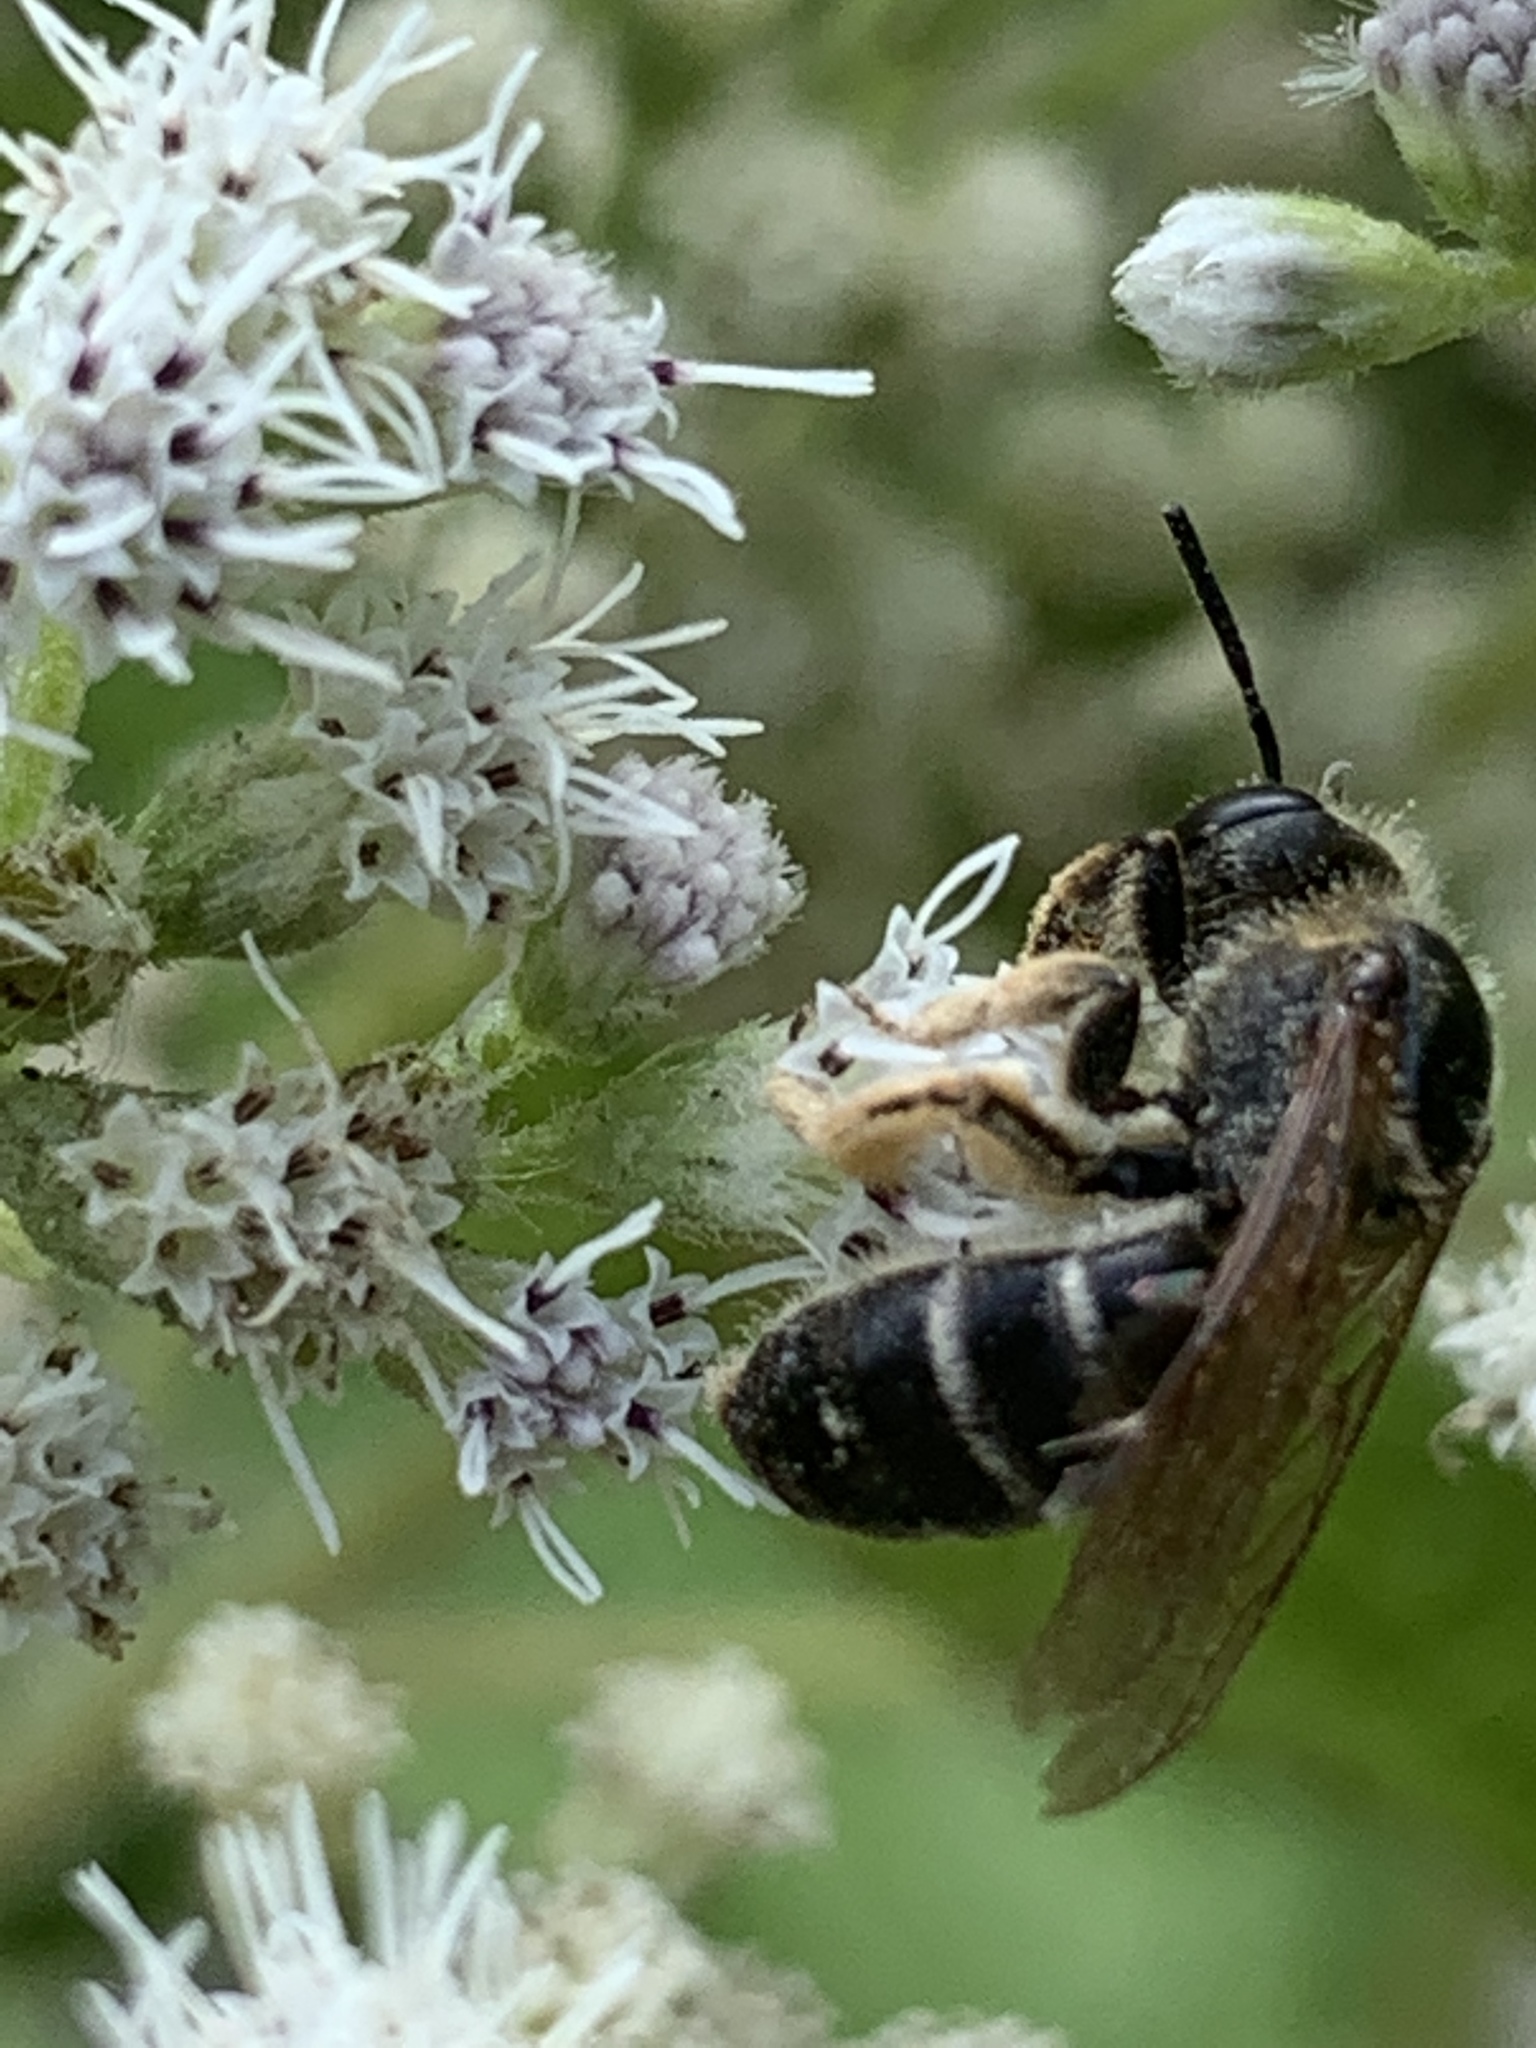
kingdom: Animalia
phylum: Arthropoda
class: Insecta
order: Hymenoptera
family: Halictidae
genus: Halictus
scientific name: Halictus rubicundus
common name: Orange-legged furrow bee
